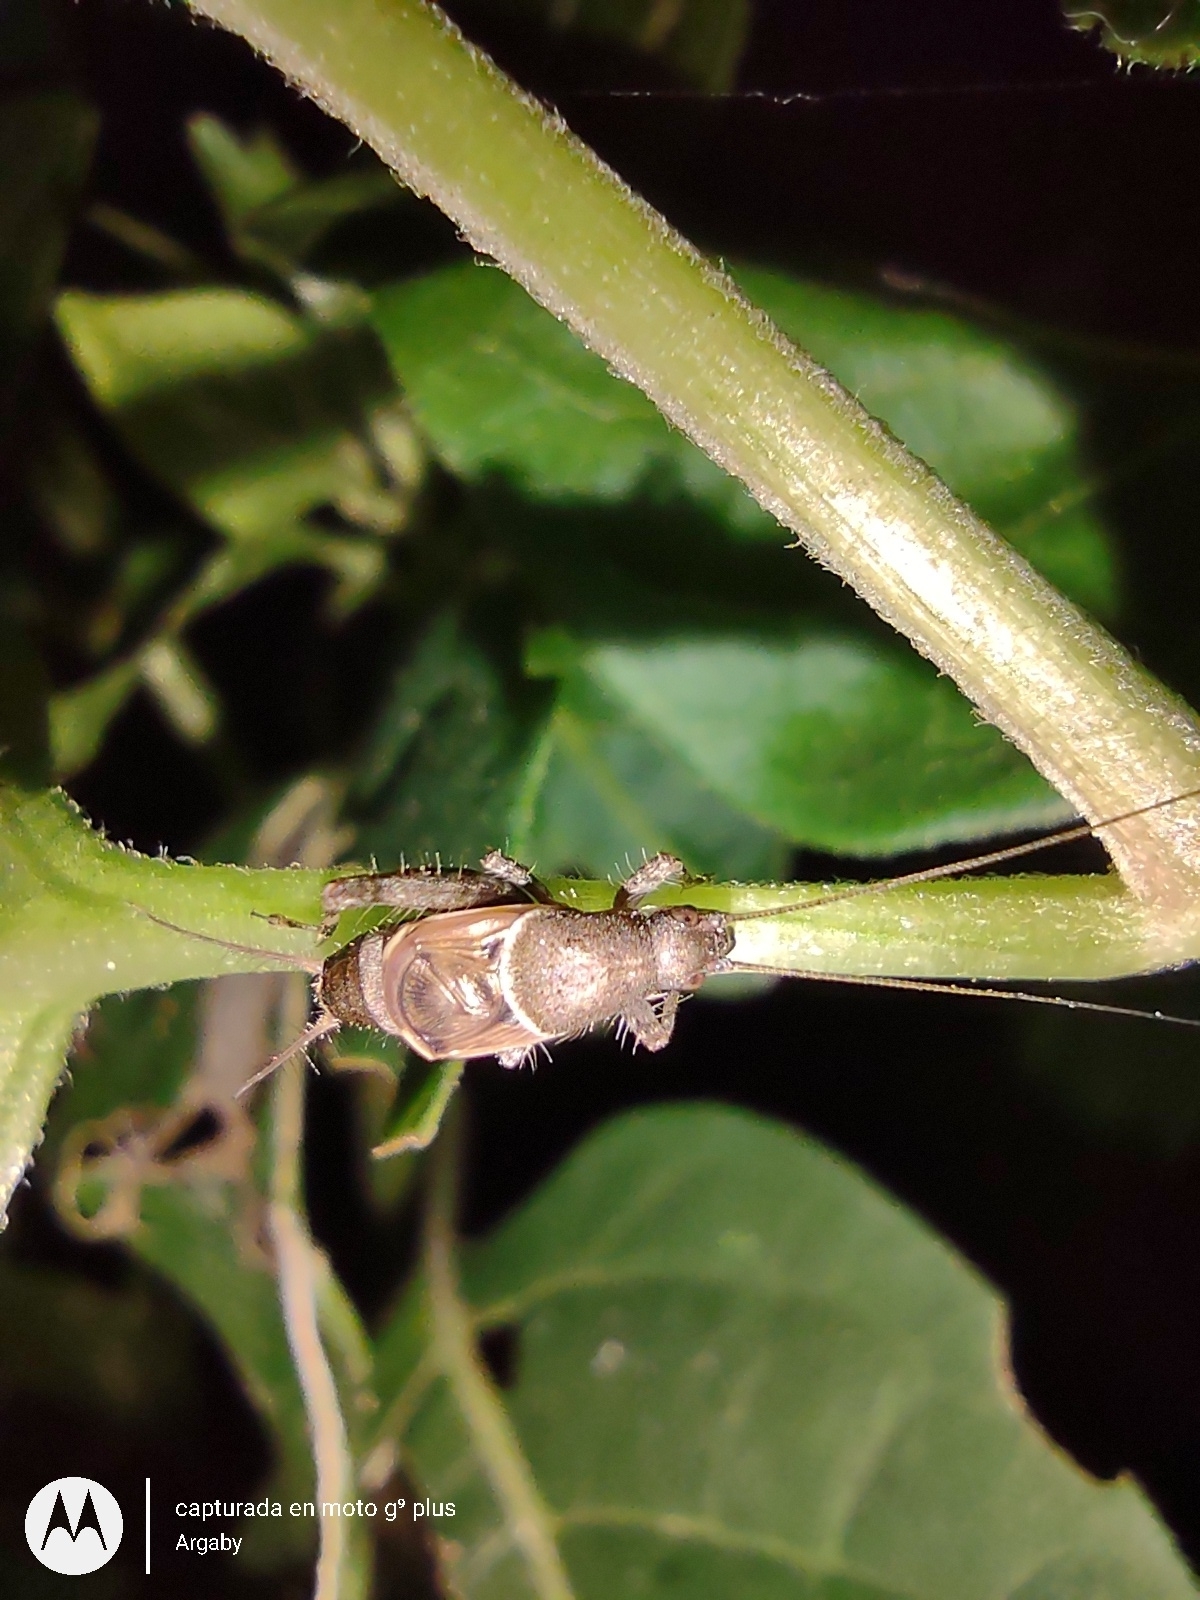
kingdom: Animalia
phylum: Arthropoda
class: Insecta
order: Orthoptera
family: Mogoplistidae
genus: Ornebius
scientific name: Ornebius alatus
